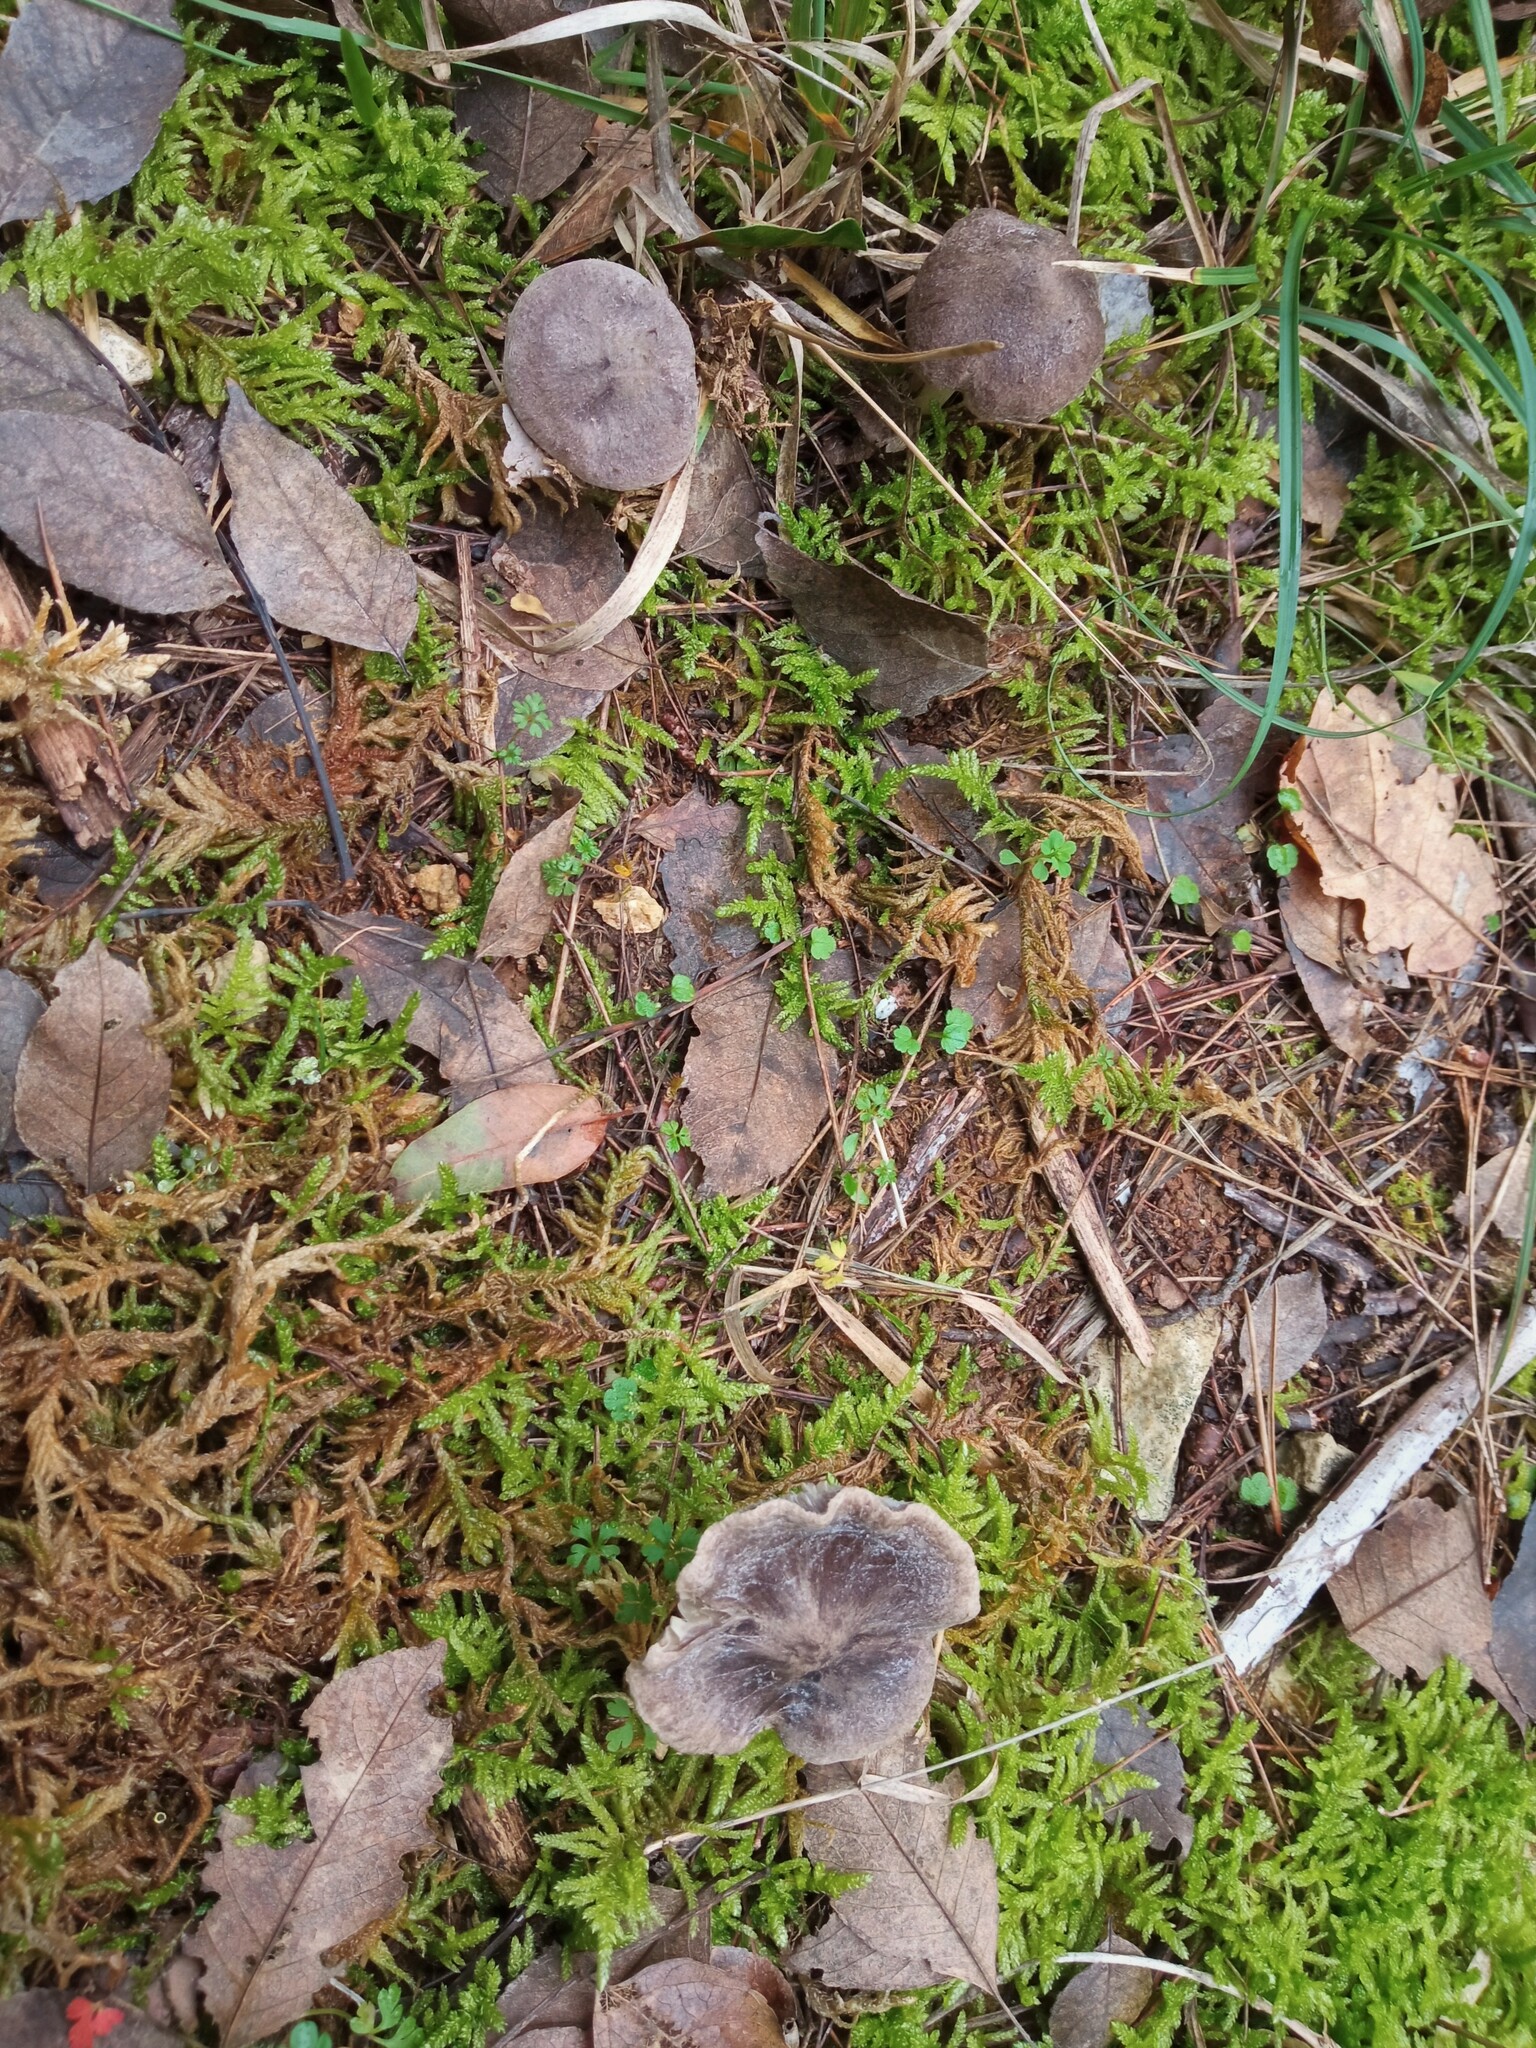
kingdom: Fungi
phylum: Basidiomycota
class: Agaricomycetes
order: Agaricales
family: Tricholomataceae
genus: Tricholoma
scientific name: Tricholoma terreum
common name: Grey knight
